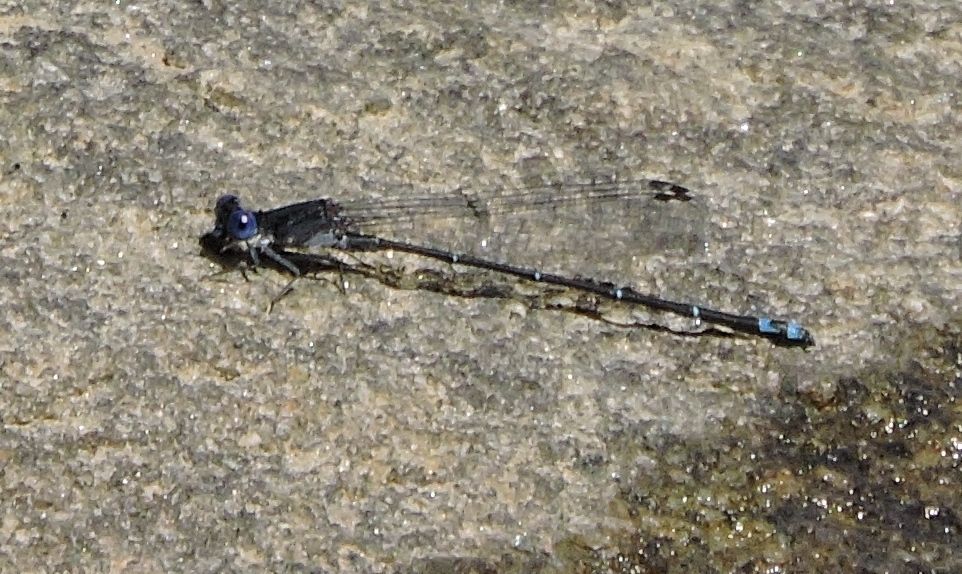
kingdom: Animalia
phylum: Arthropoda
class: Insecta
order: Odonata
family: Coenagrionidae
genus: Argia
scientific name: Argia translata
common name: Dusky dancer
